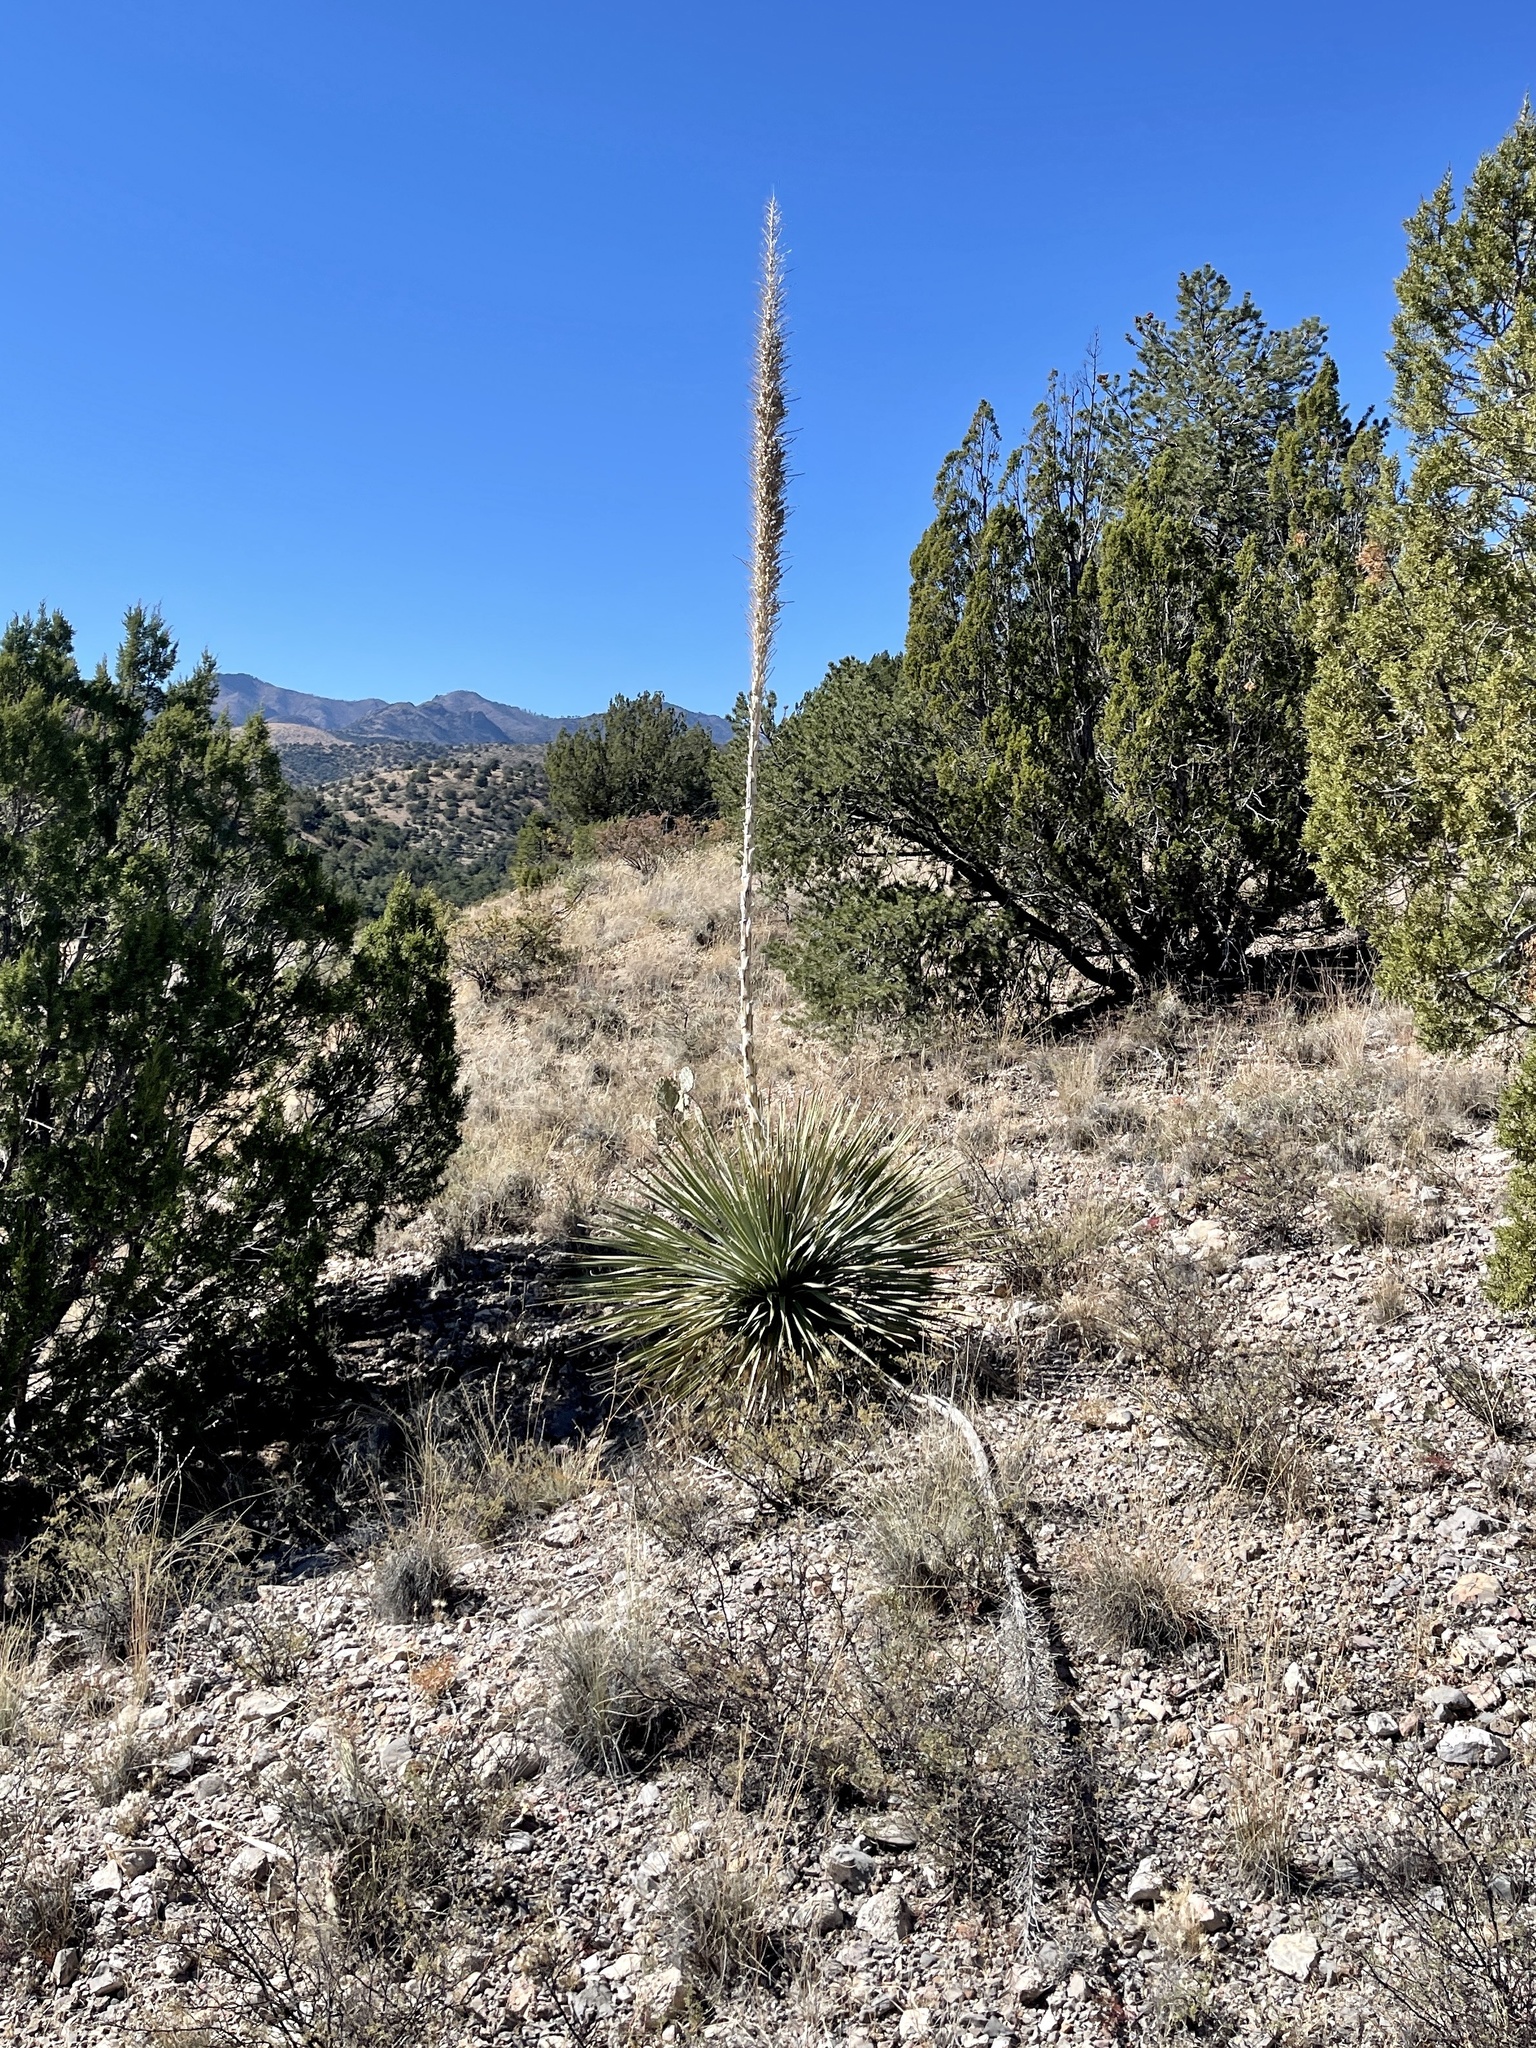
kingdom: Plantae
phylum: Tracheophyta
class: Liliopsida
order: Asparagales
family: Asparagaceae
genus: Dasylirion
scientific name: Dasylirion wheeleri
